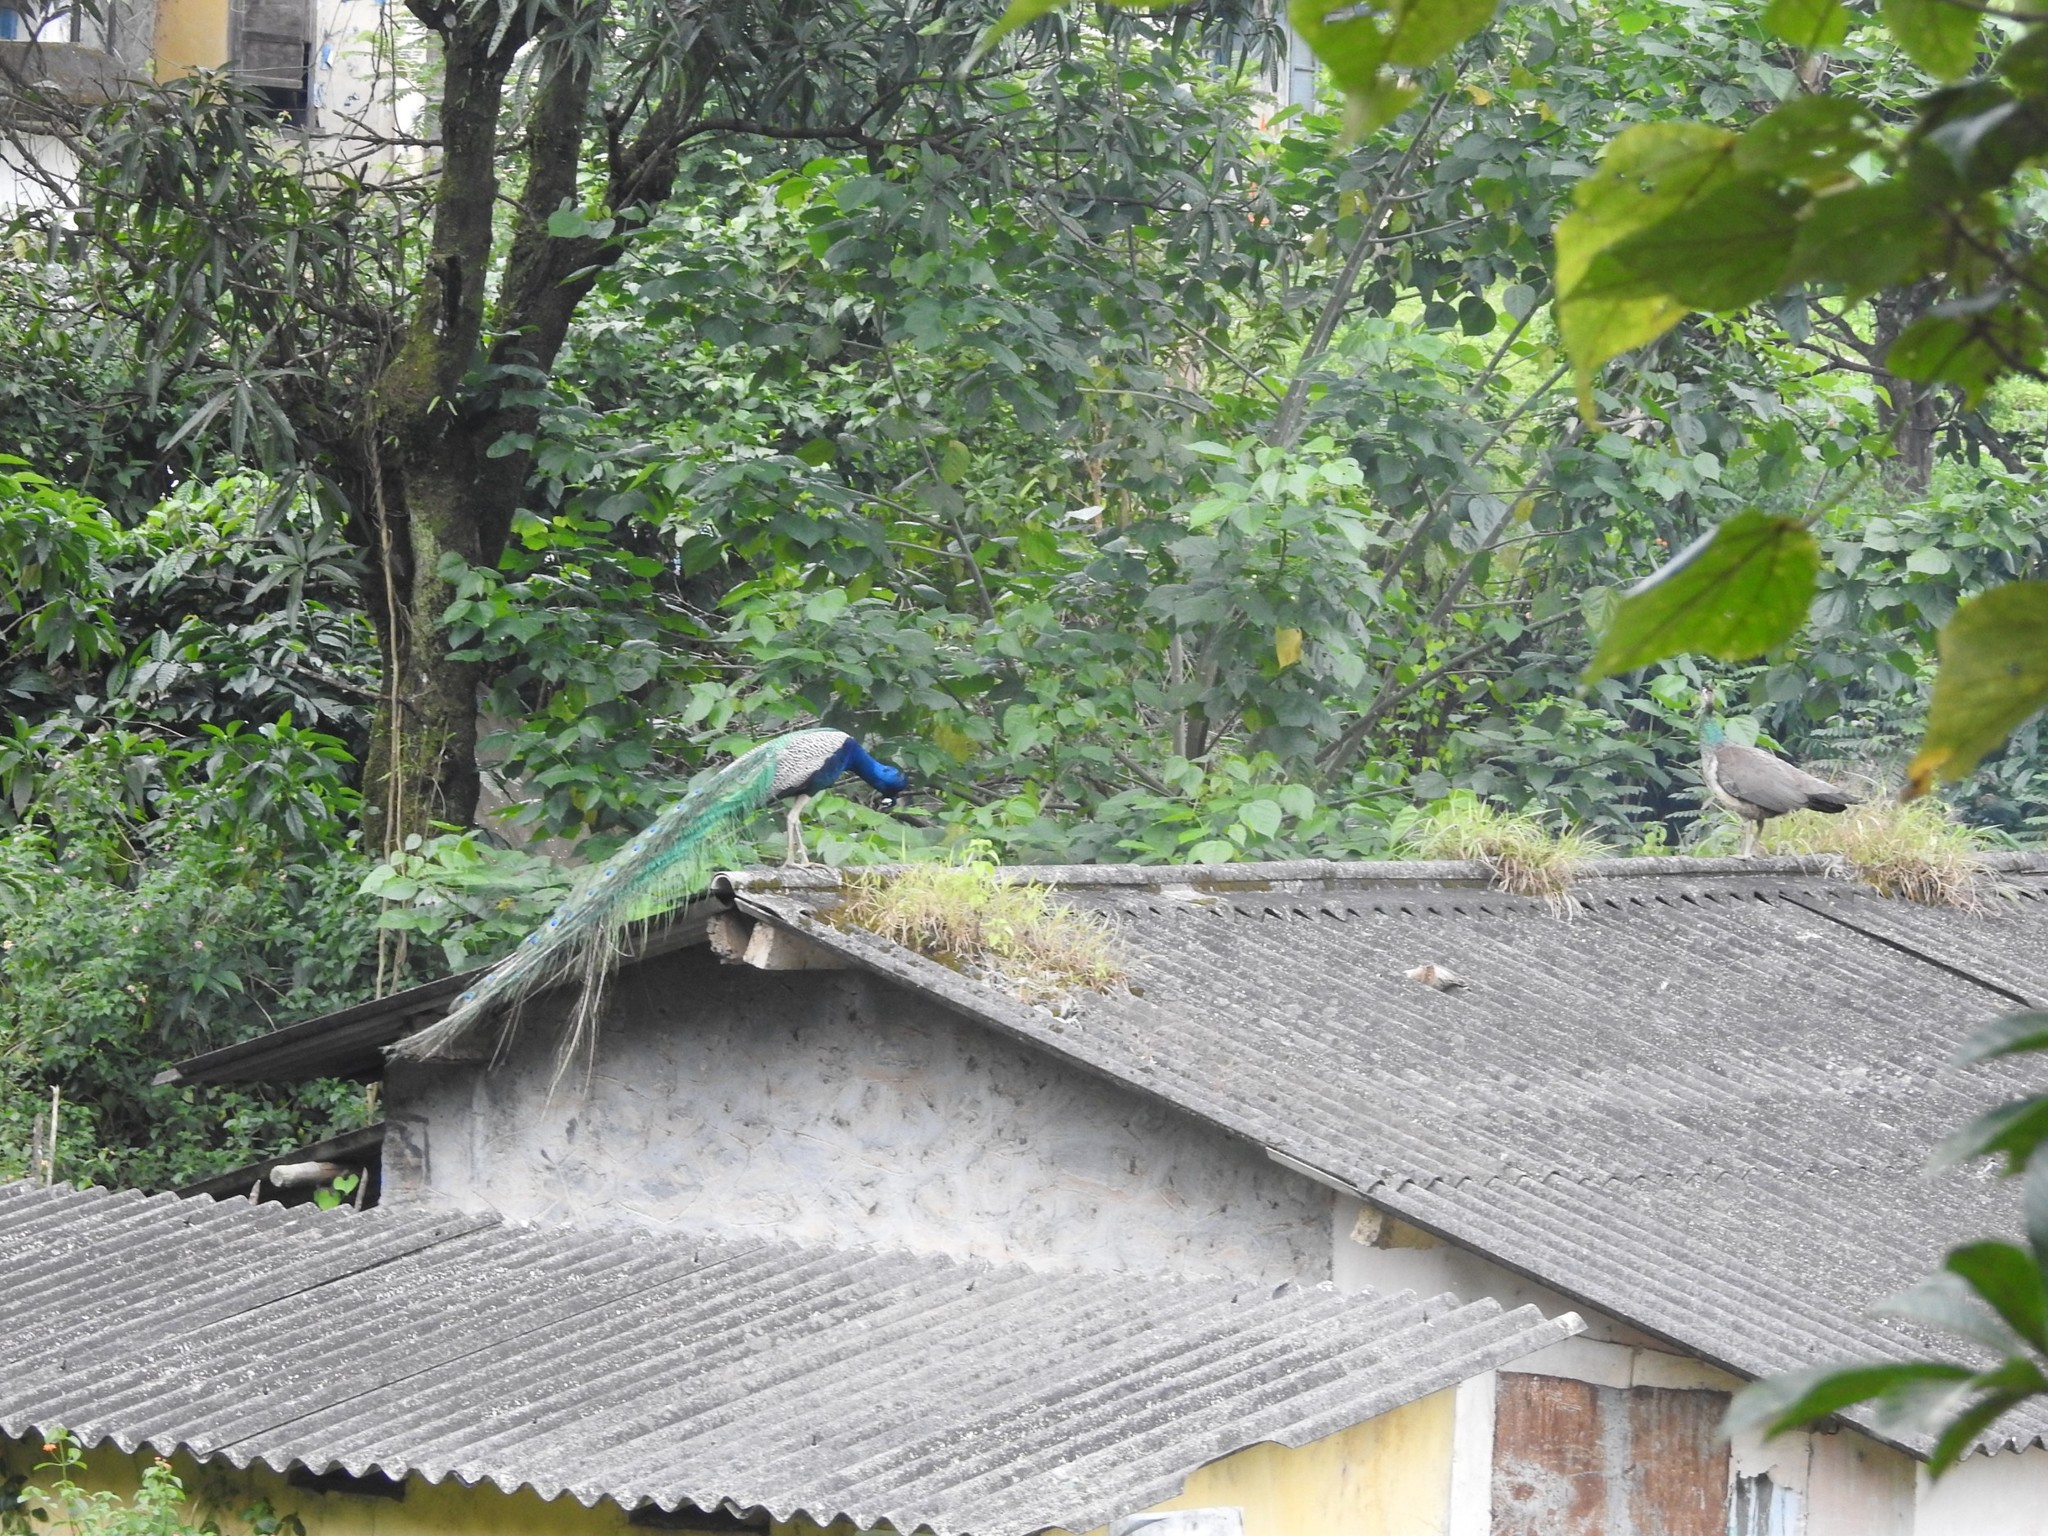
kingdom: Animalia
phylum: Chordata
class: Aves
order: Galliformes
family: Phasianidae
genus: Pavo
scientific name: Pavo cristatus
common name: Indian peafowl
